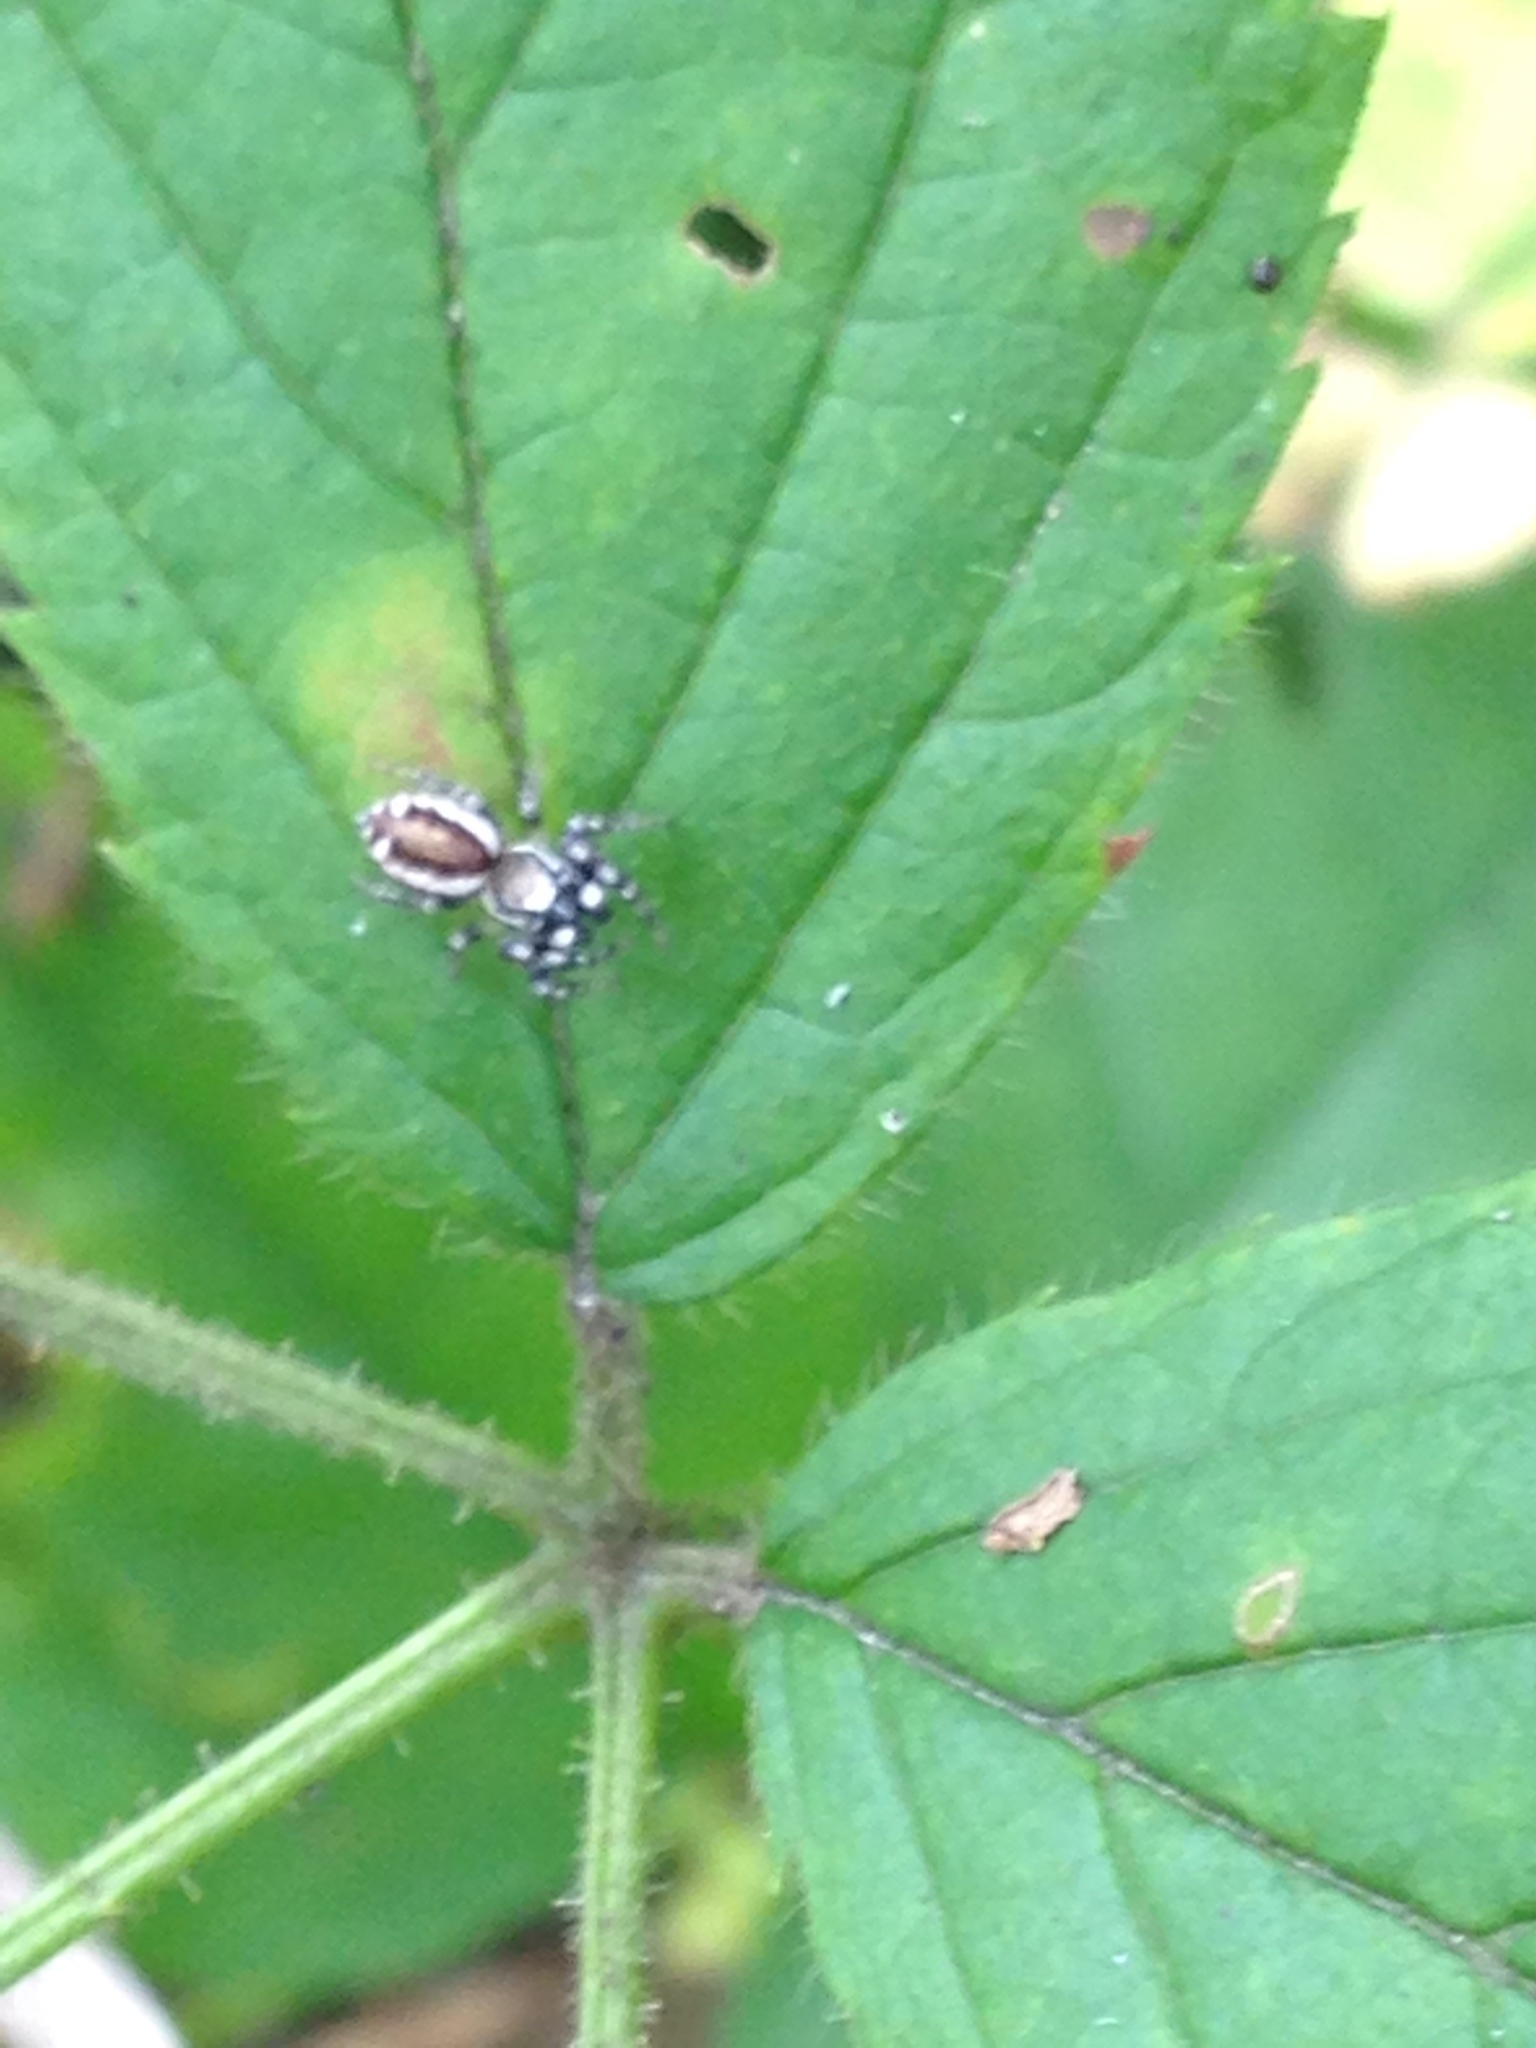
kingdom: Animalia
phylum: Arthropoda
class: Arachnida
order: Araneae
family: Salticidae
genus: Pelegrina
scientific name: Pelegrina proterva
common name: Common white-cheeked jumping spider
